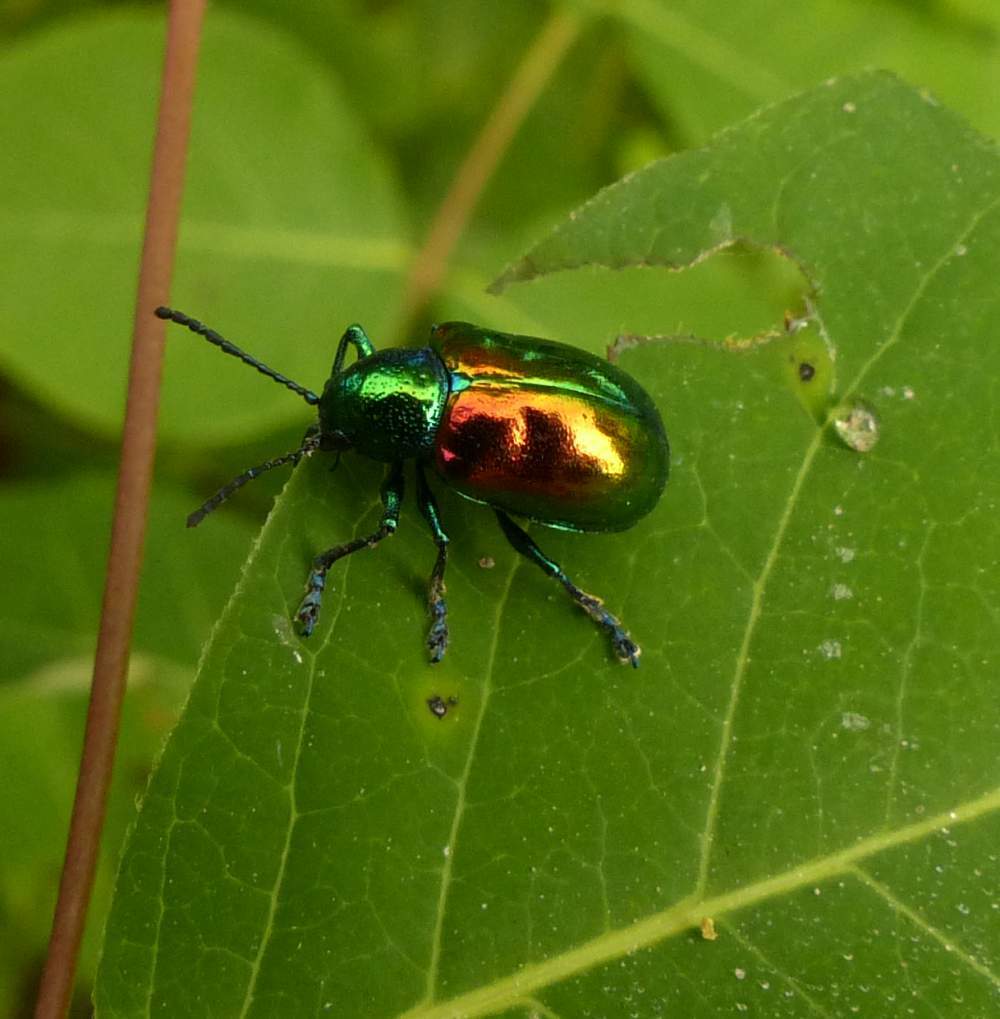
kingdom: Animalia
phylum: Arthropoda
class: Insecta
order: Coleoptera
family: Chrysomelidae
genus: Chrysochus
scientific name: Chrysochus auratus
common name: Dogbane leaf beetle
